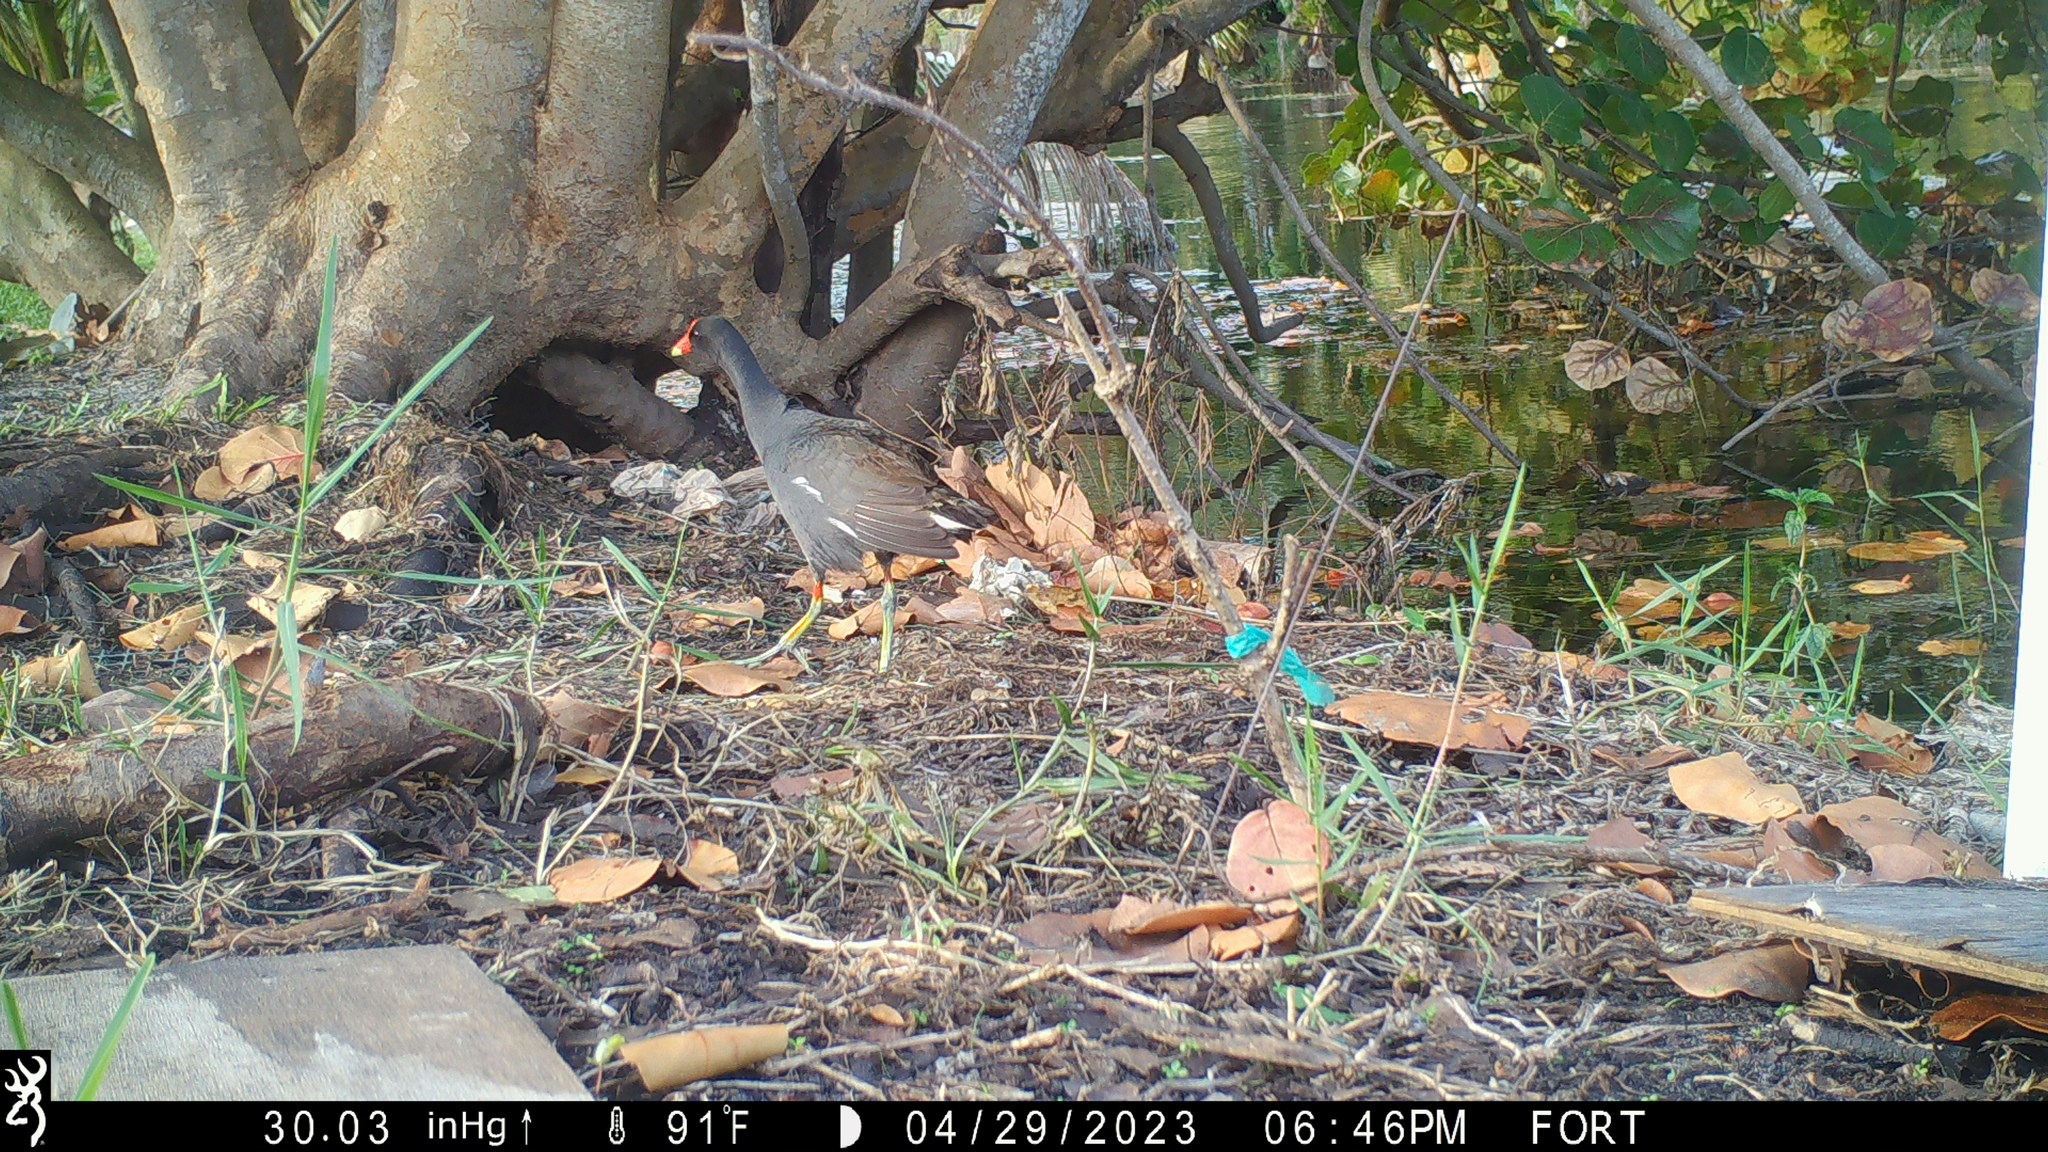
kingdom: Animalia
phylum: Chordata
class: Aves
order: Gruiformes
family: Rallidae
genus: Gallinula
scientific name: Gallinula chloropus
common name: Common moorhen
